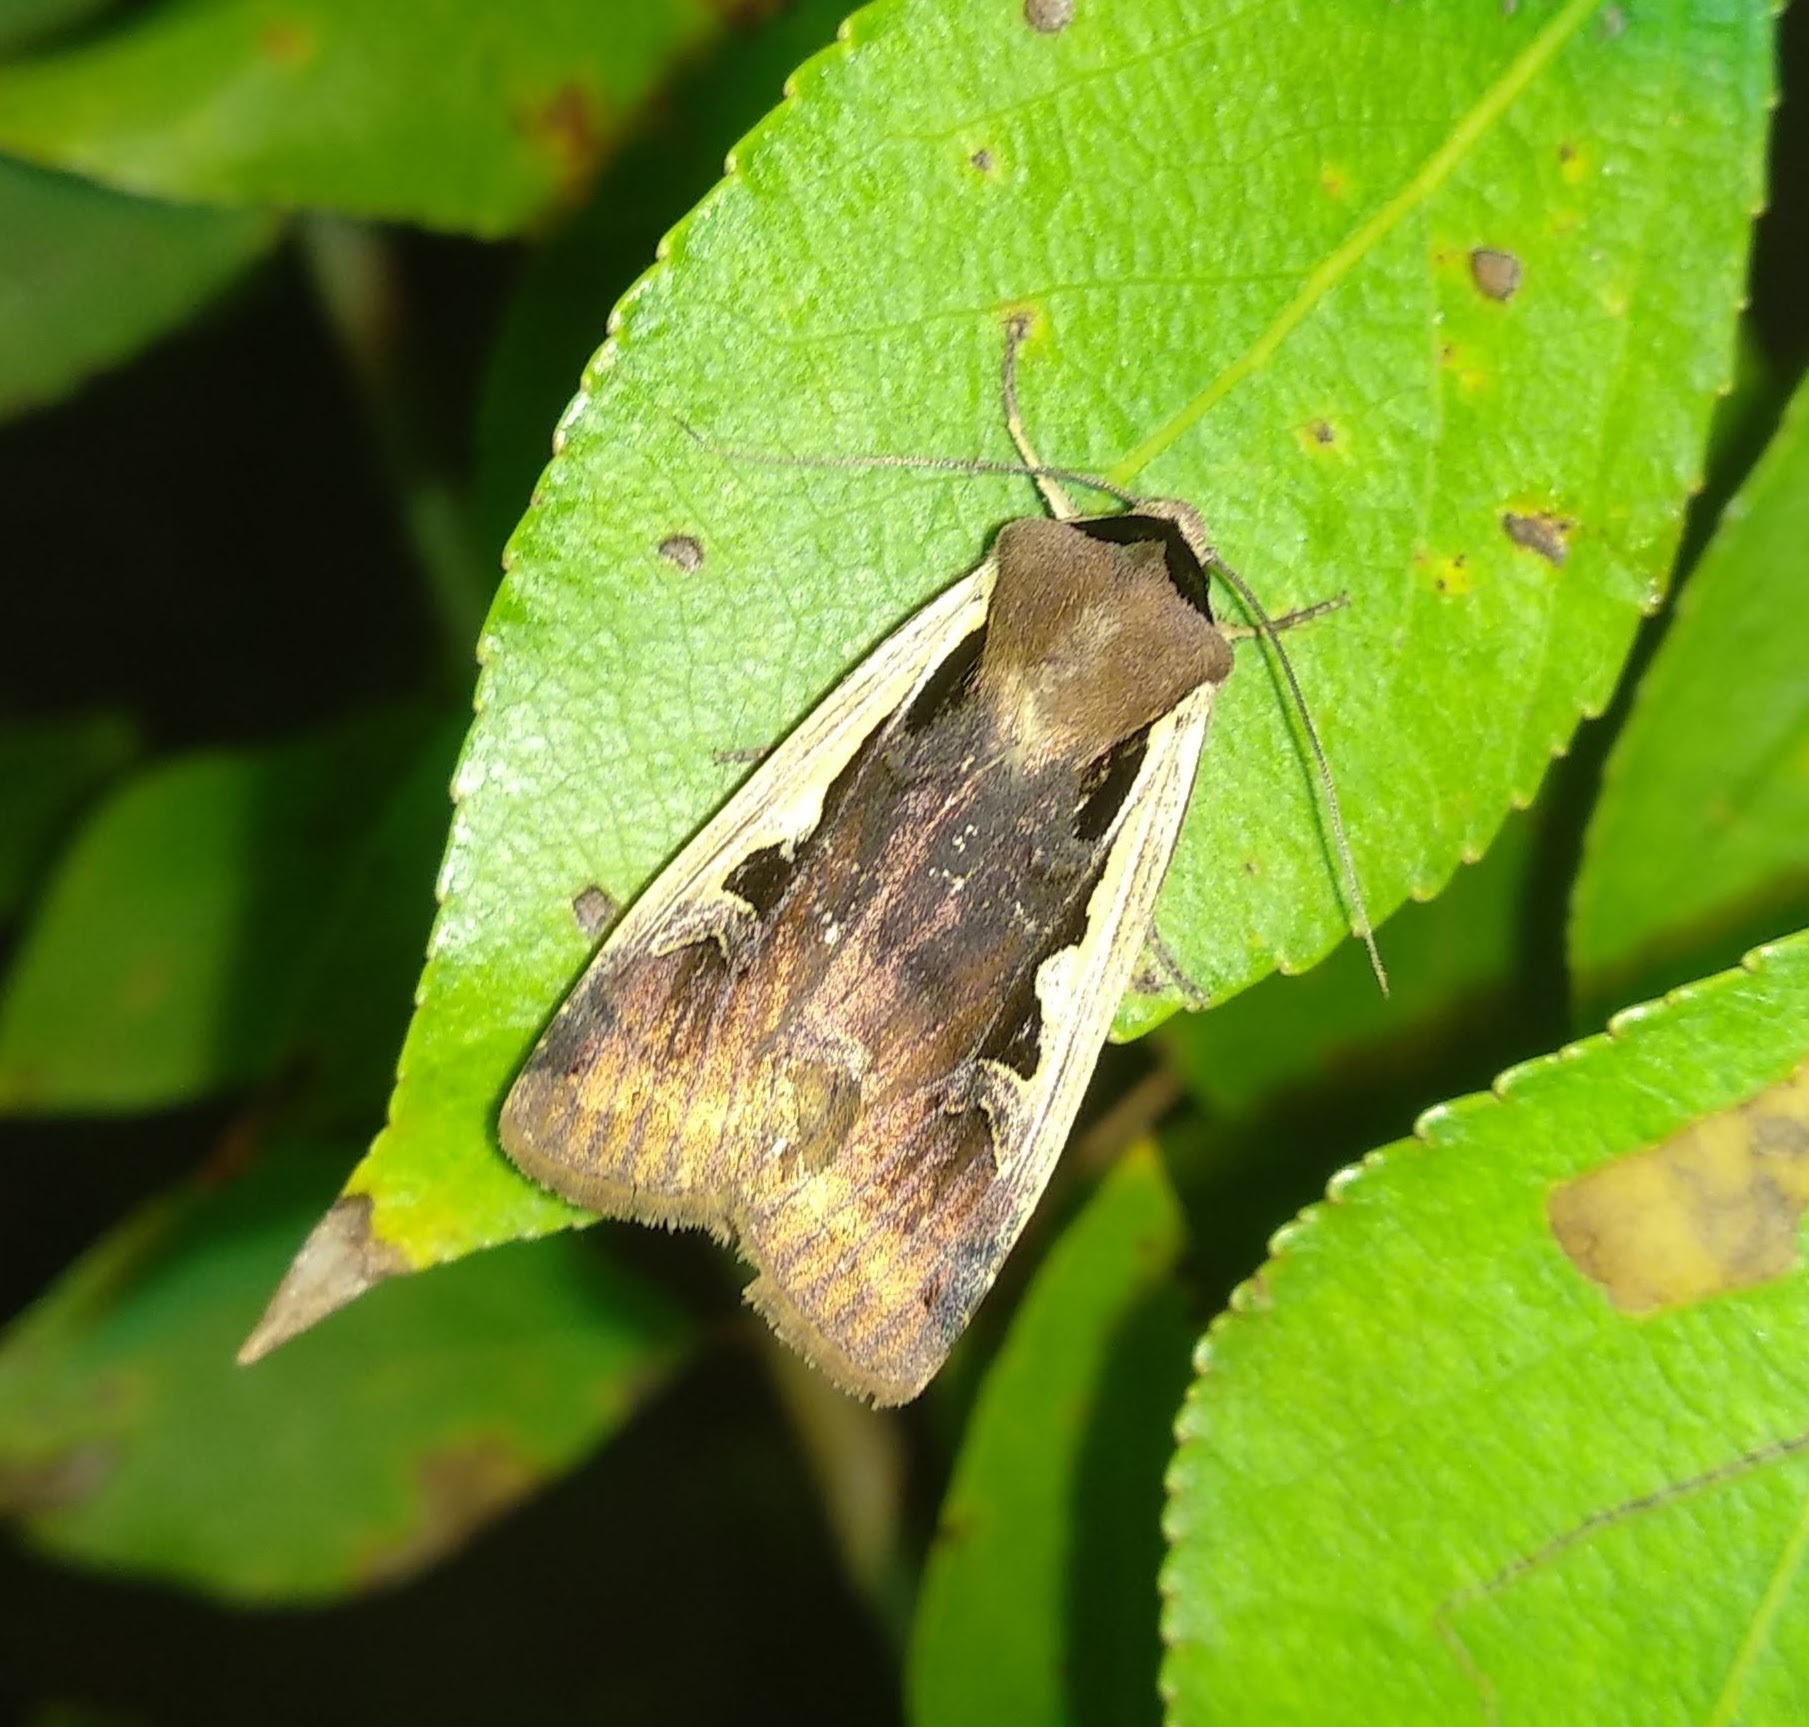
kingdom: Animalia
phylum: Arthropoda
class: Insecta
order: Lepidoptera
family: Noctuidae
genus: Dichagyris
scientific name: Dichagyris musiva
